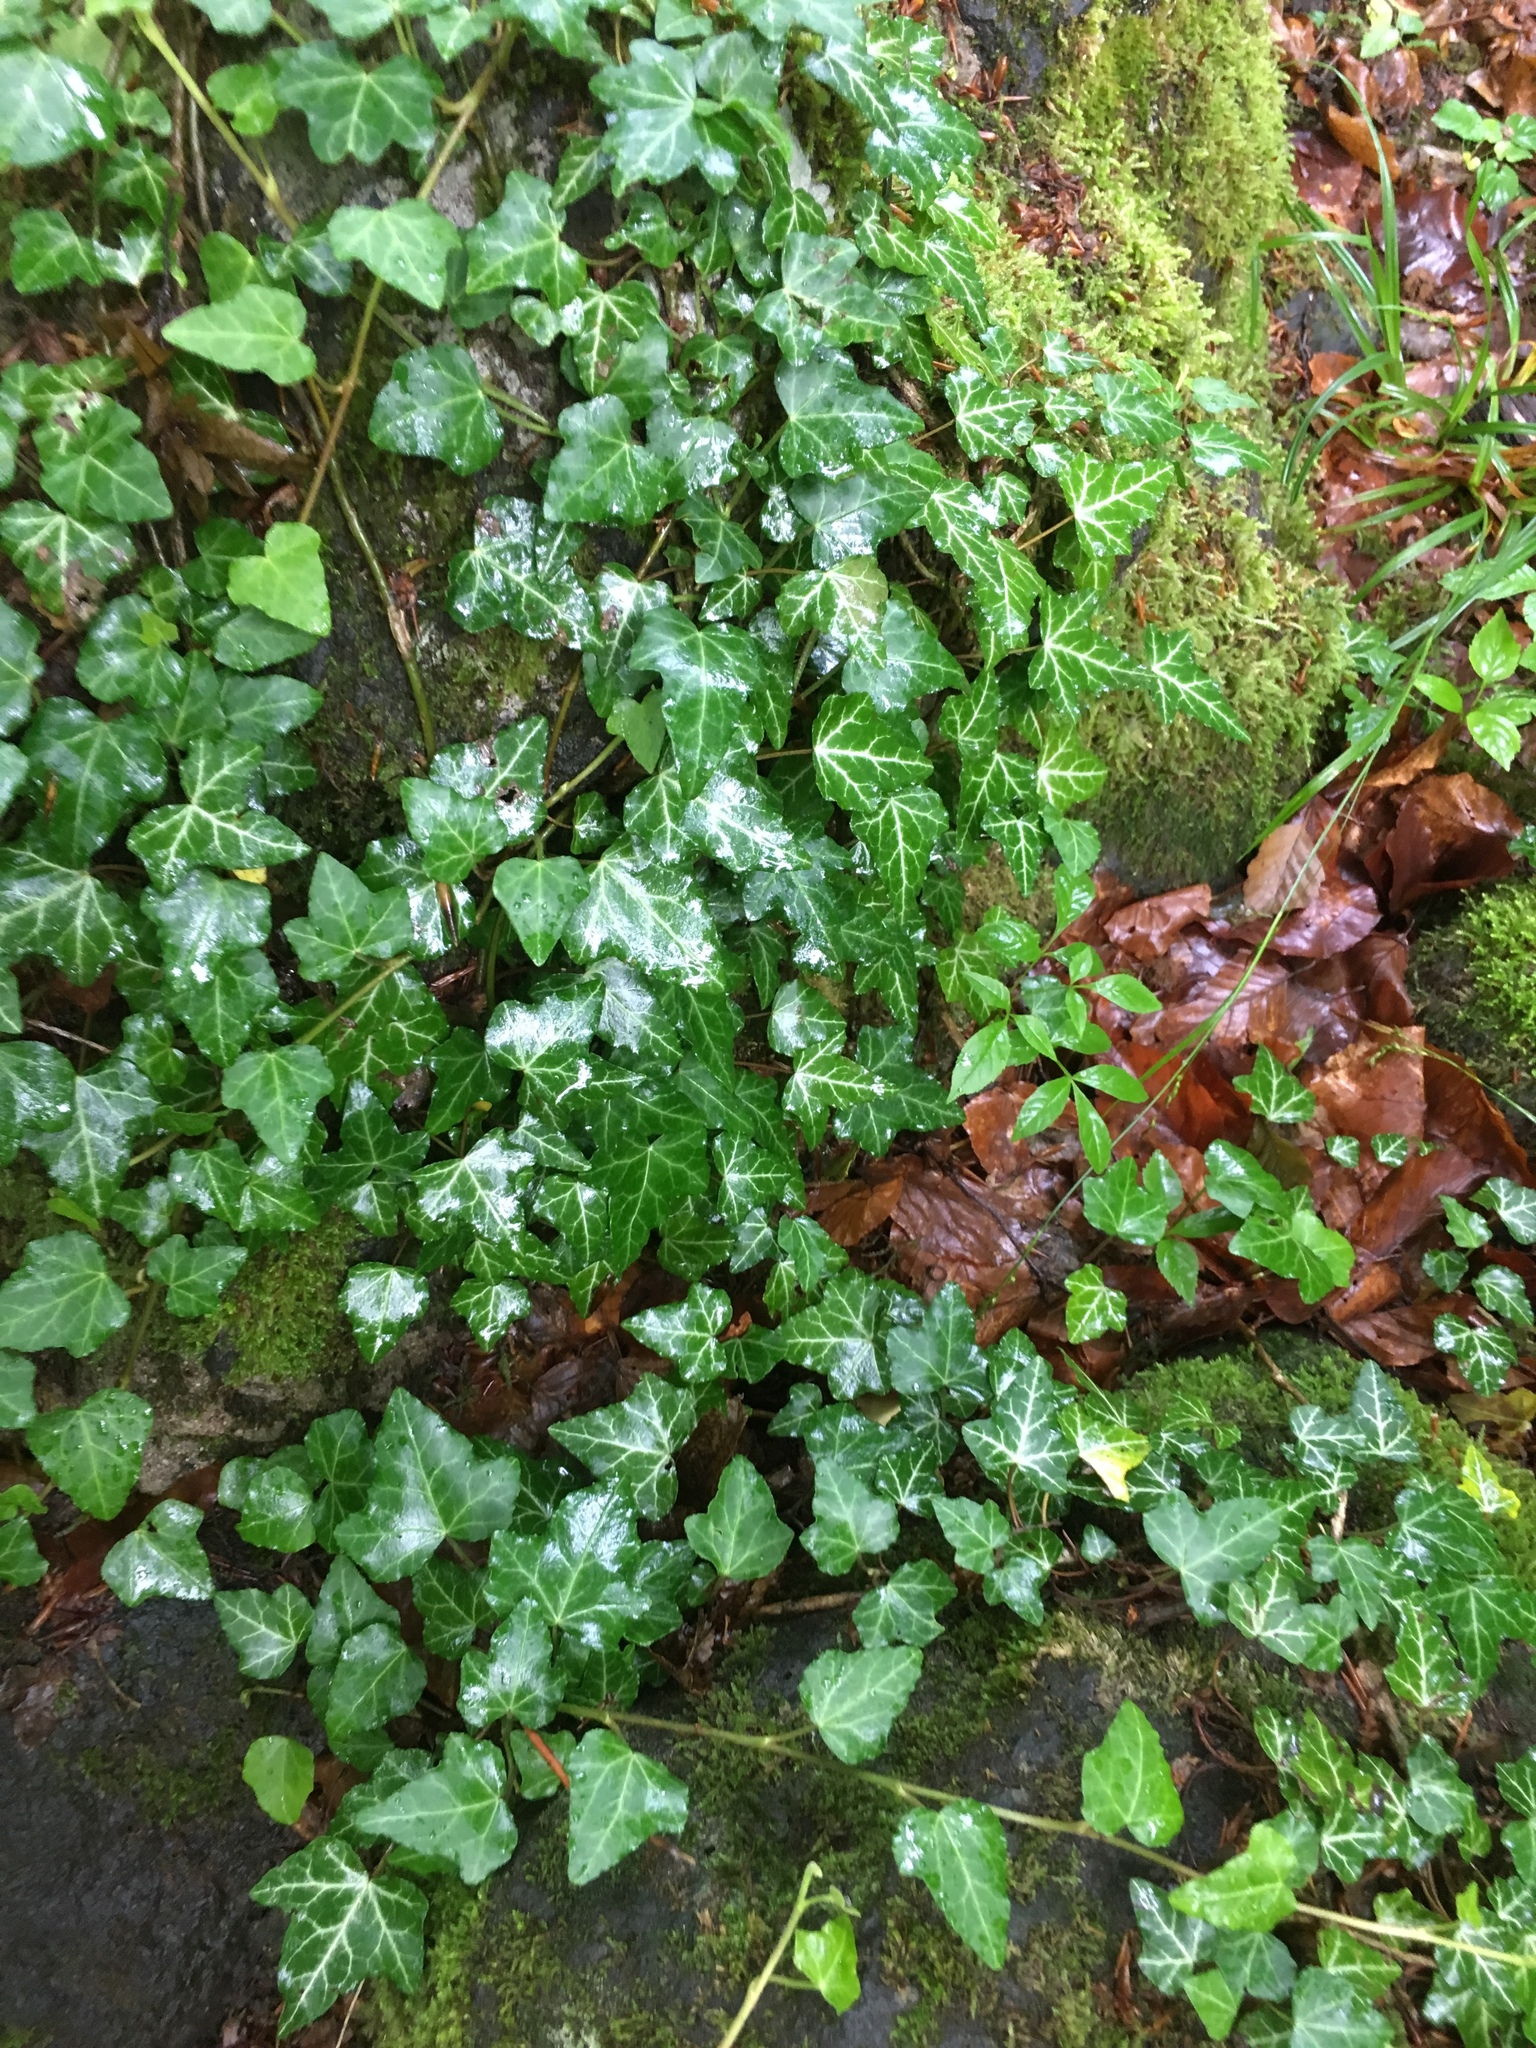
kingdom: Plantae
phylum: Tracheophyta
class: Magnoliopsida
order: Apiales
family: Araliaceae
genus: Hedera
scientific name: Hedera helix
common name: Ivy
